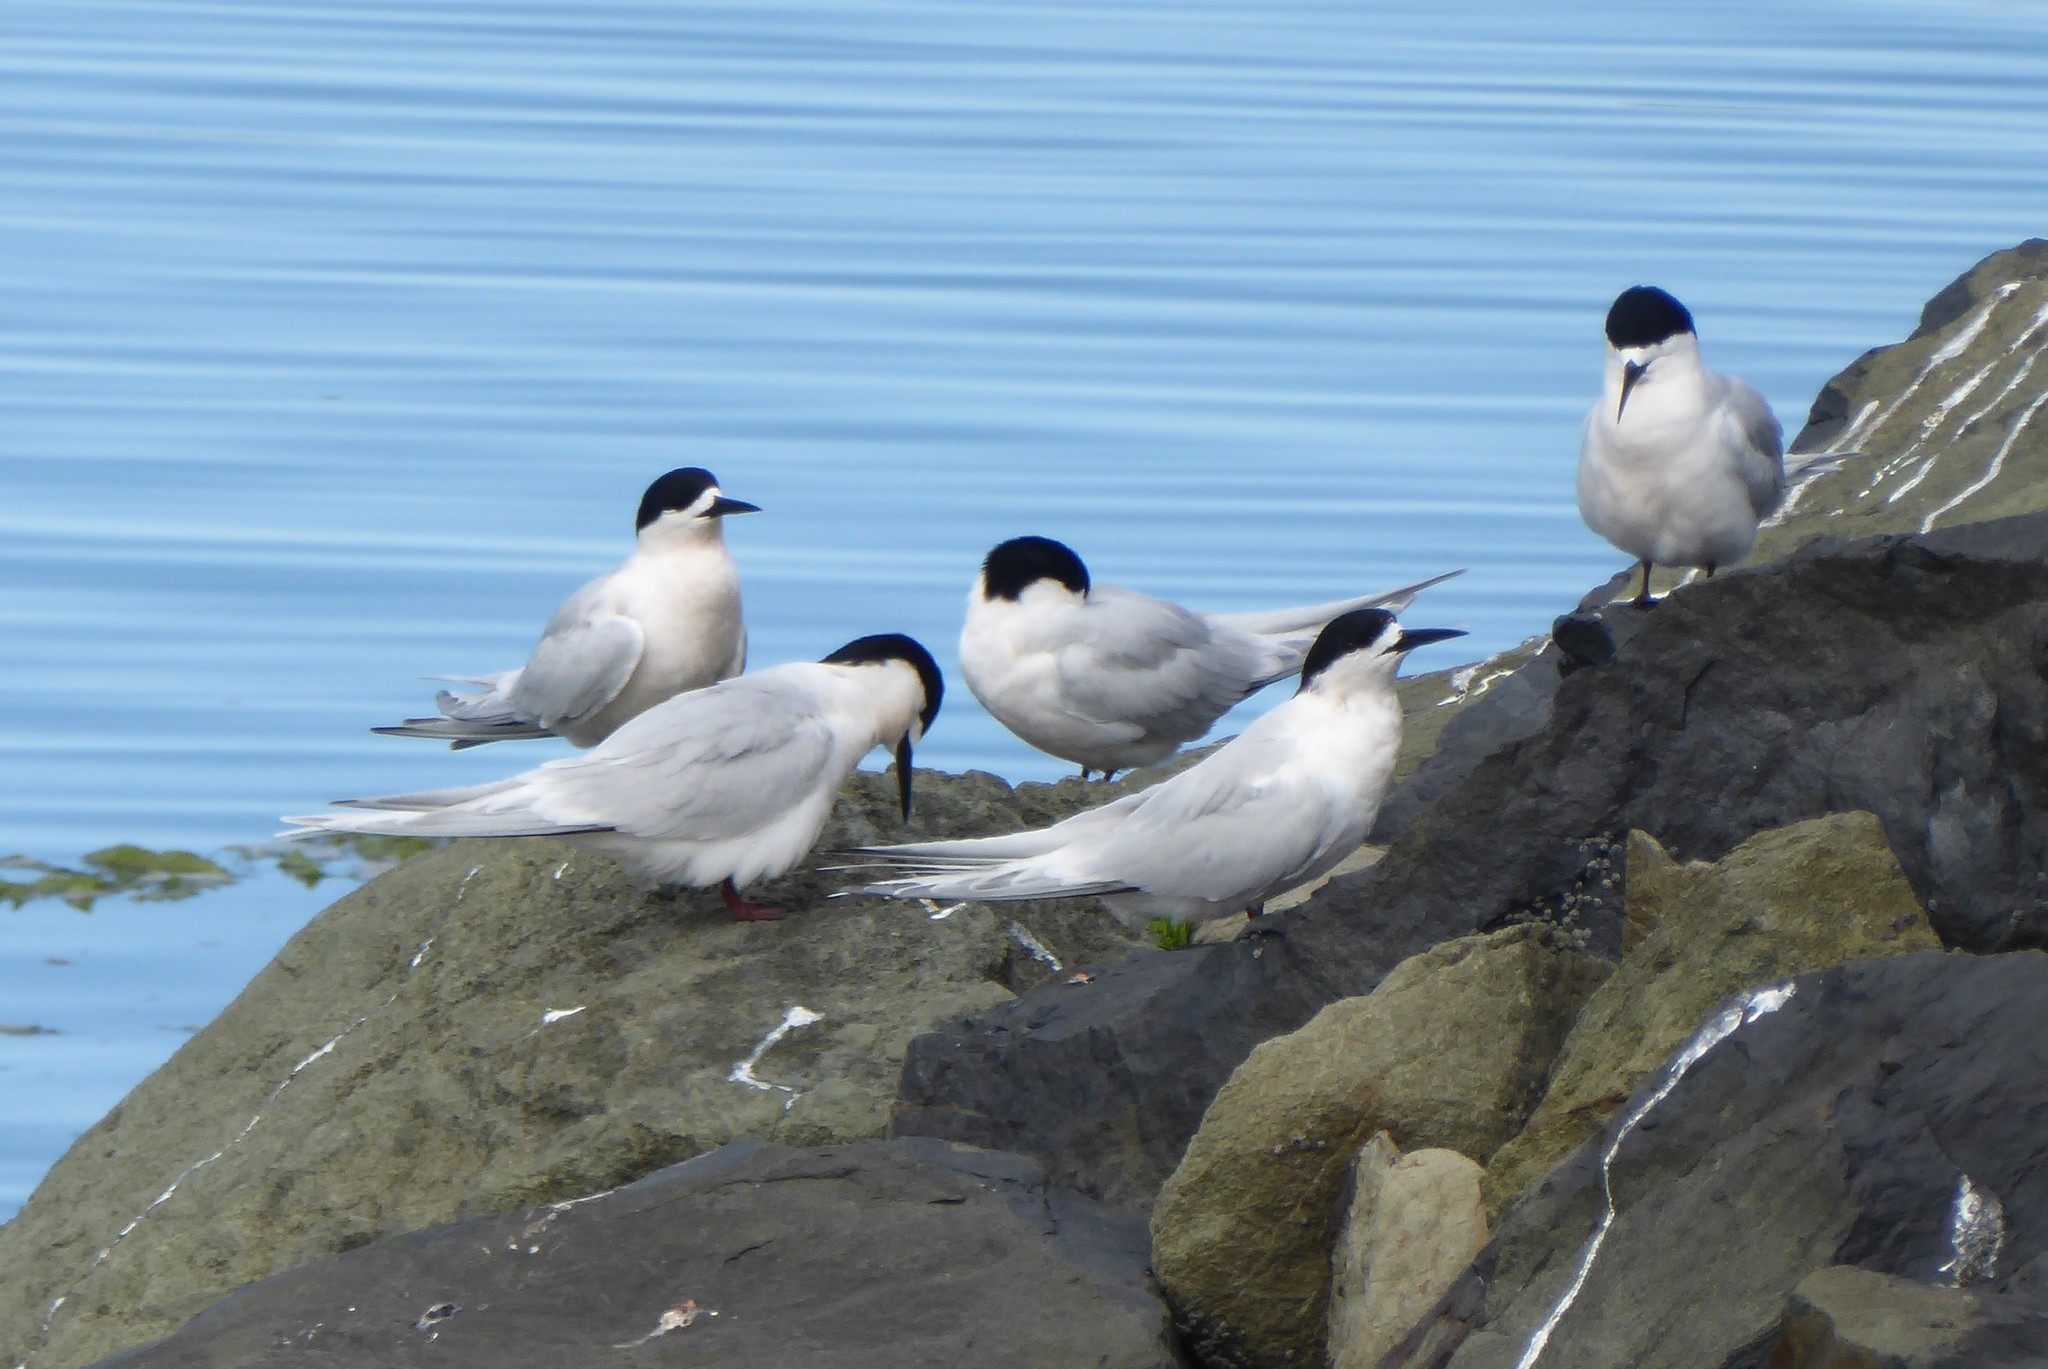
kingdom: Animalia
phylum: Chordata
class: Aves
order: Charadriiformes
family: Laridae
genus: Sterna
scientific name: Sterna striata
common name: White-fronted tern
